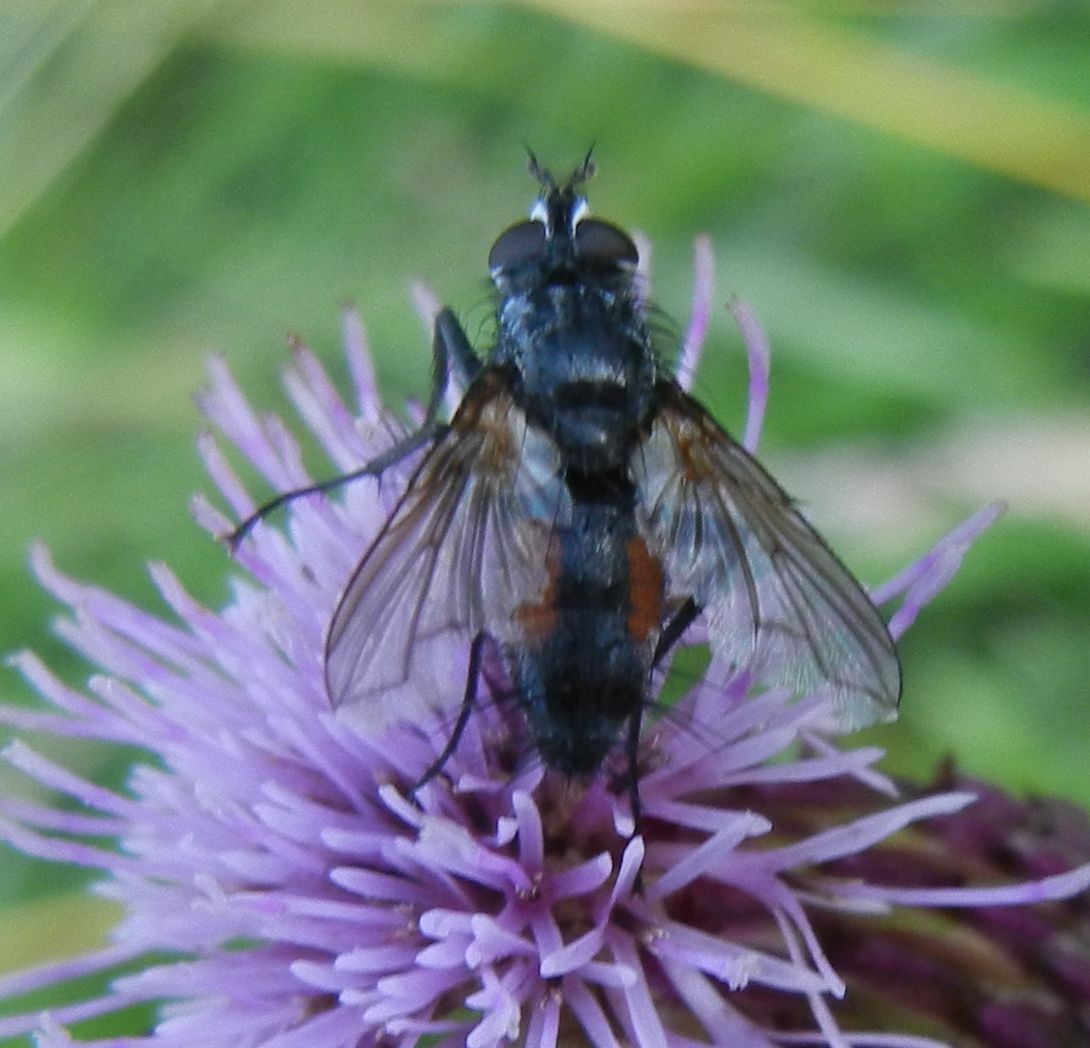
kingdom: Animalia
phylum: Arthropoda
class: Insecta
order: Diptera
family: Tachinidae
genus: Eriothrix
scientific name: Eriothrix rufomaculatus
